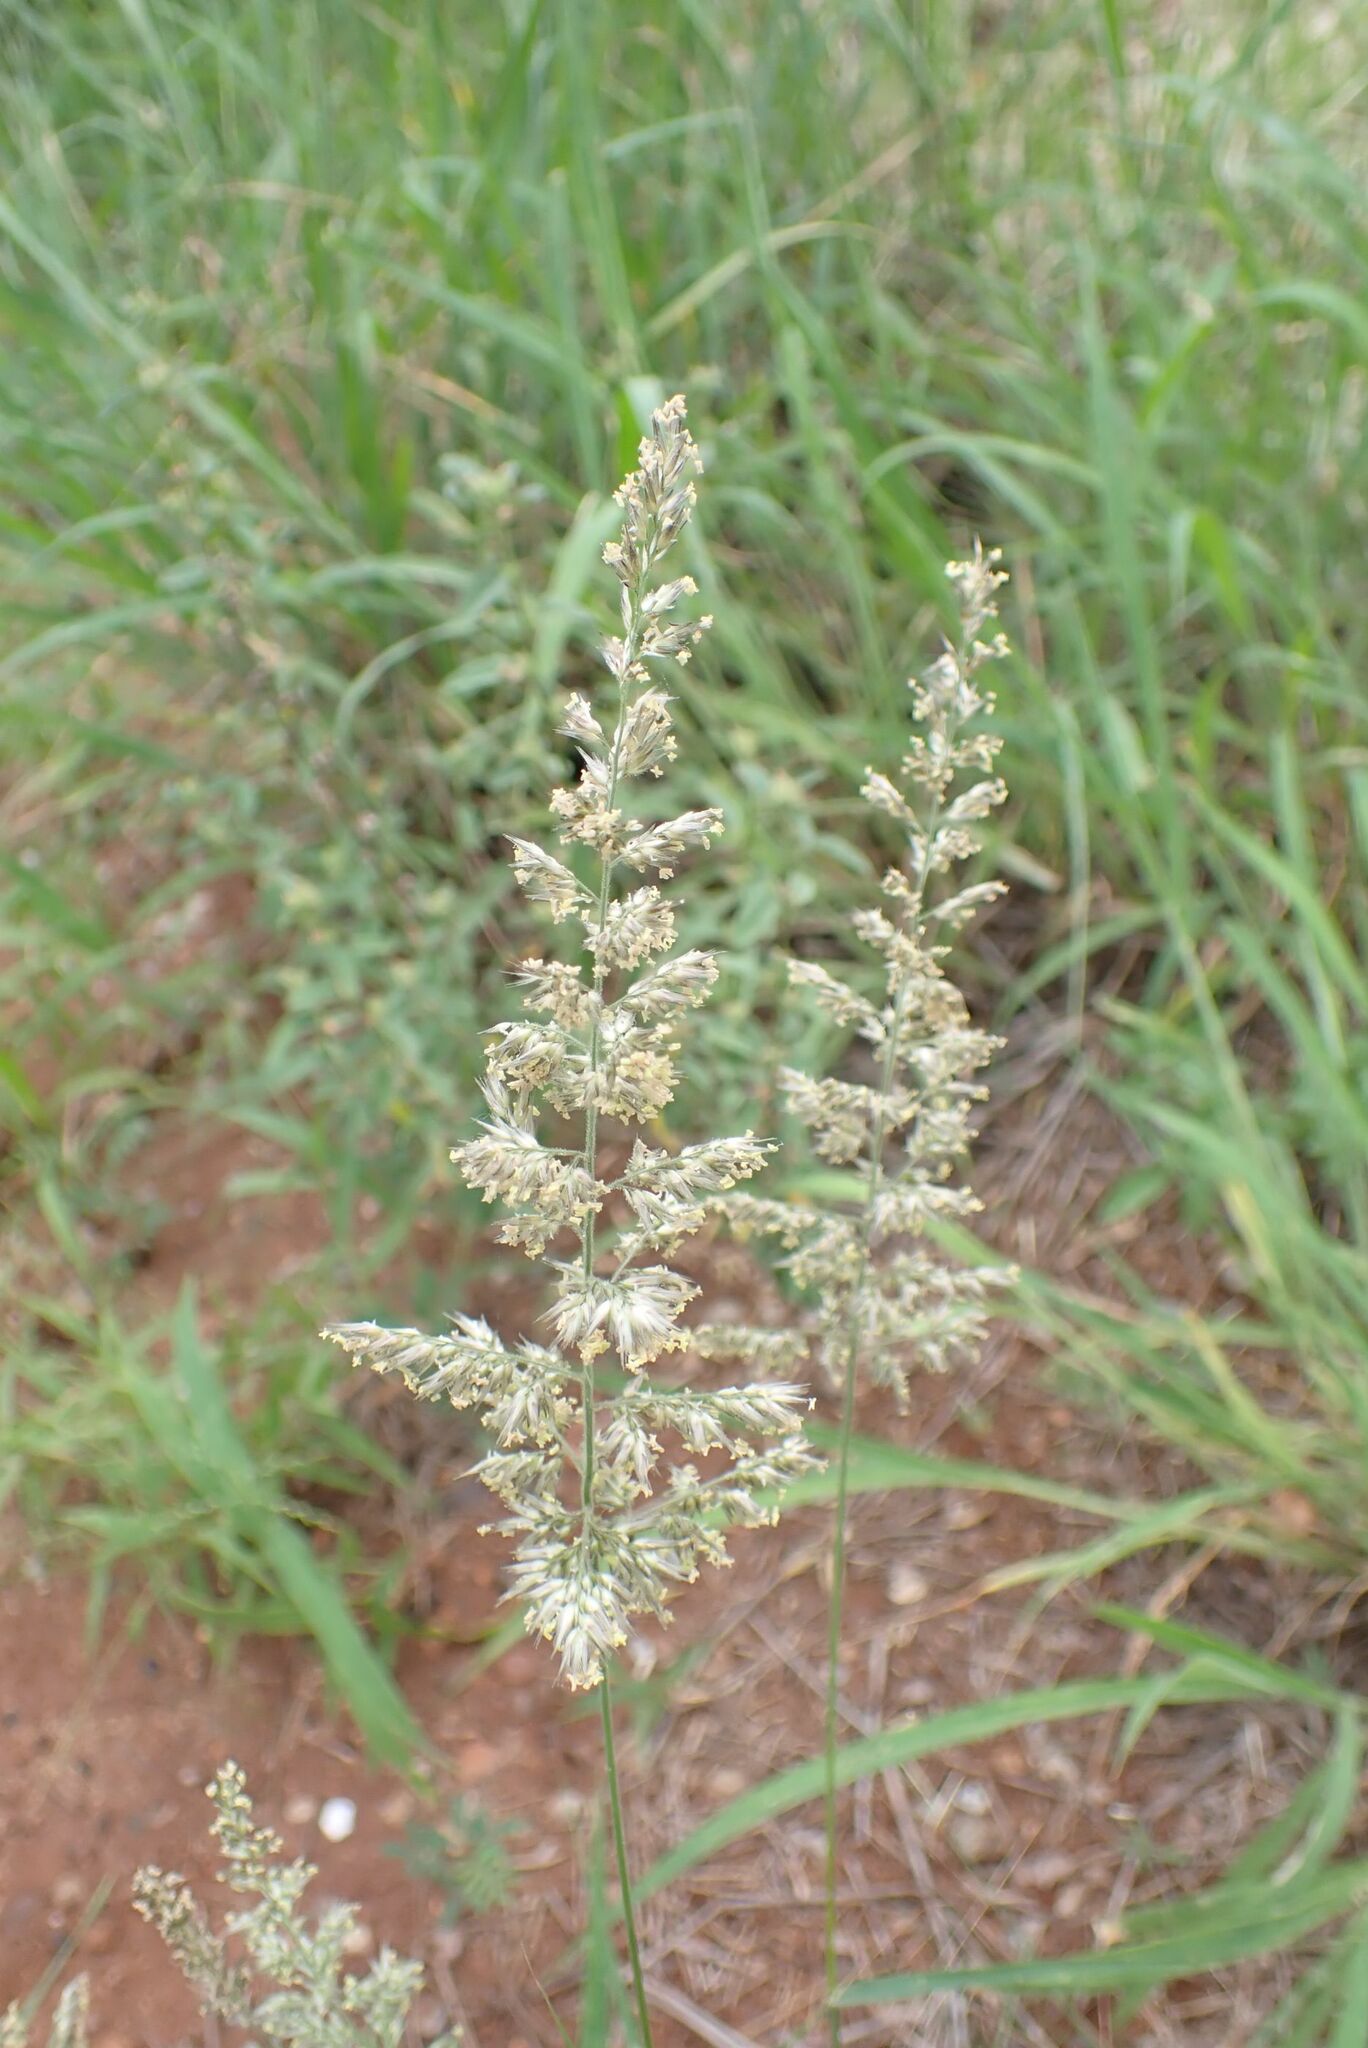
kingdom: Plantae
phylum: Tracheophyta
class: Liliopsida
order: Poales
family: Poaceae
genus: Enneapogon
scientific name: Enneapogon cenchroides
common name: Soft feather pappusgrass
